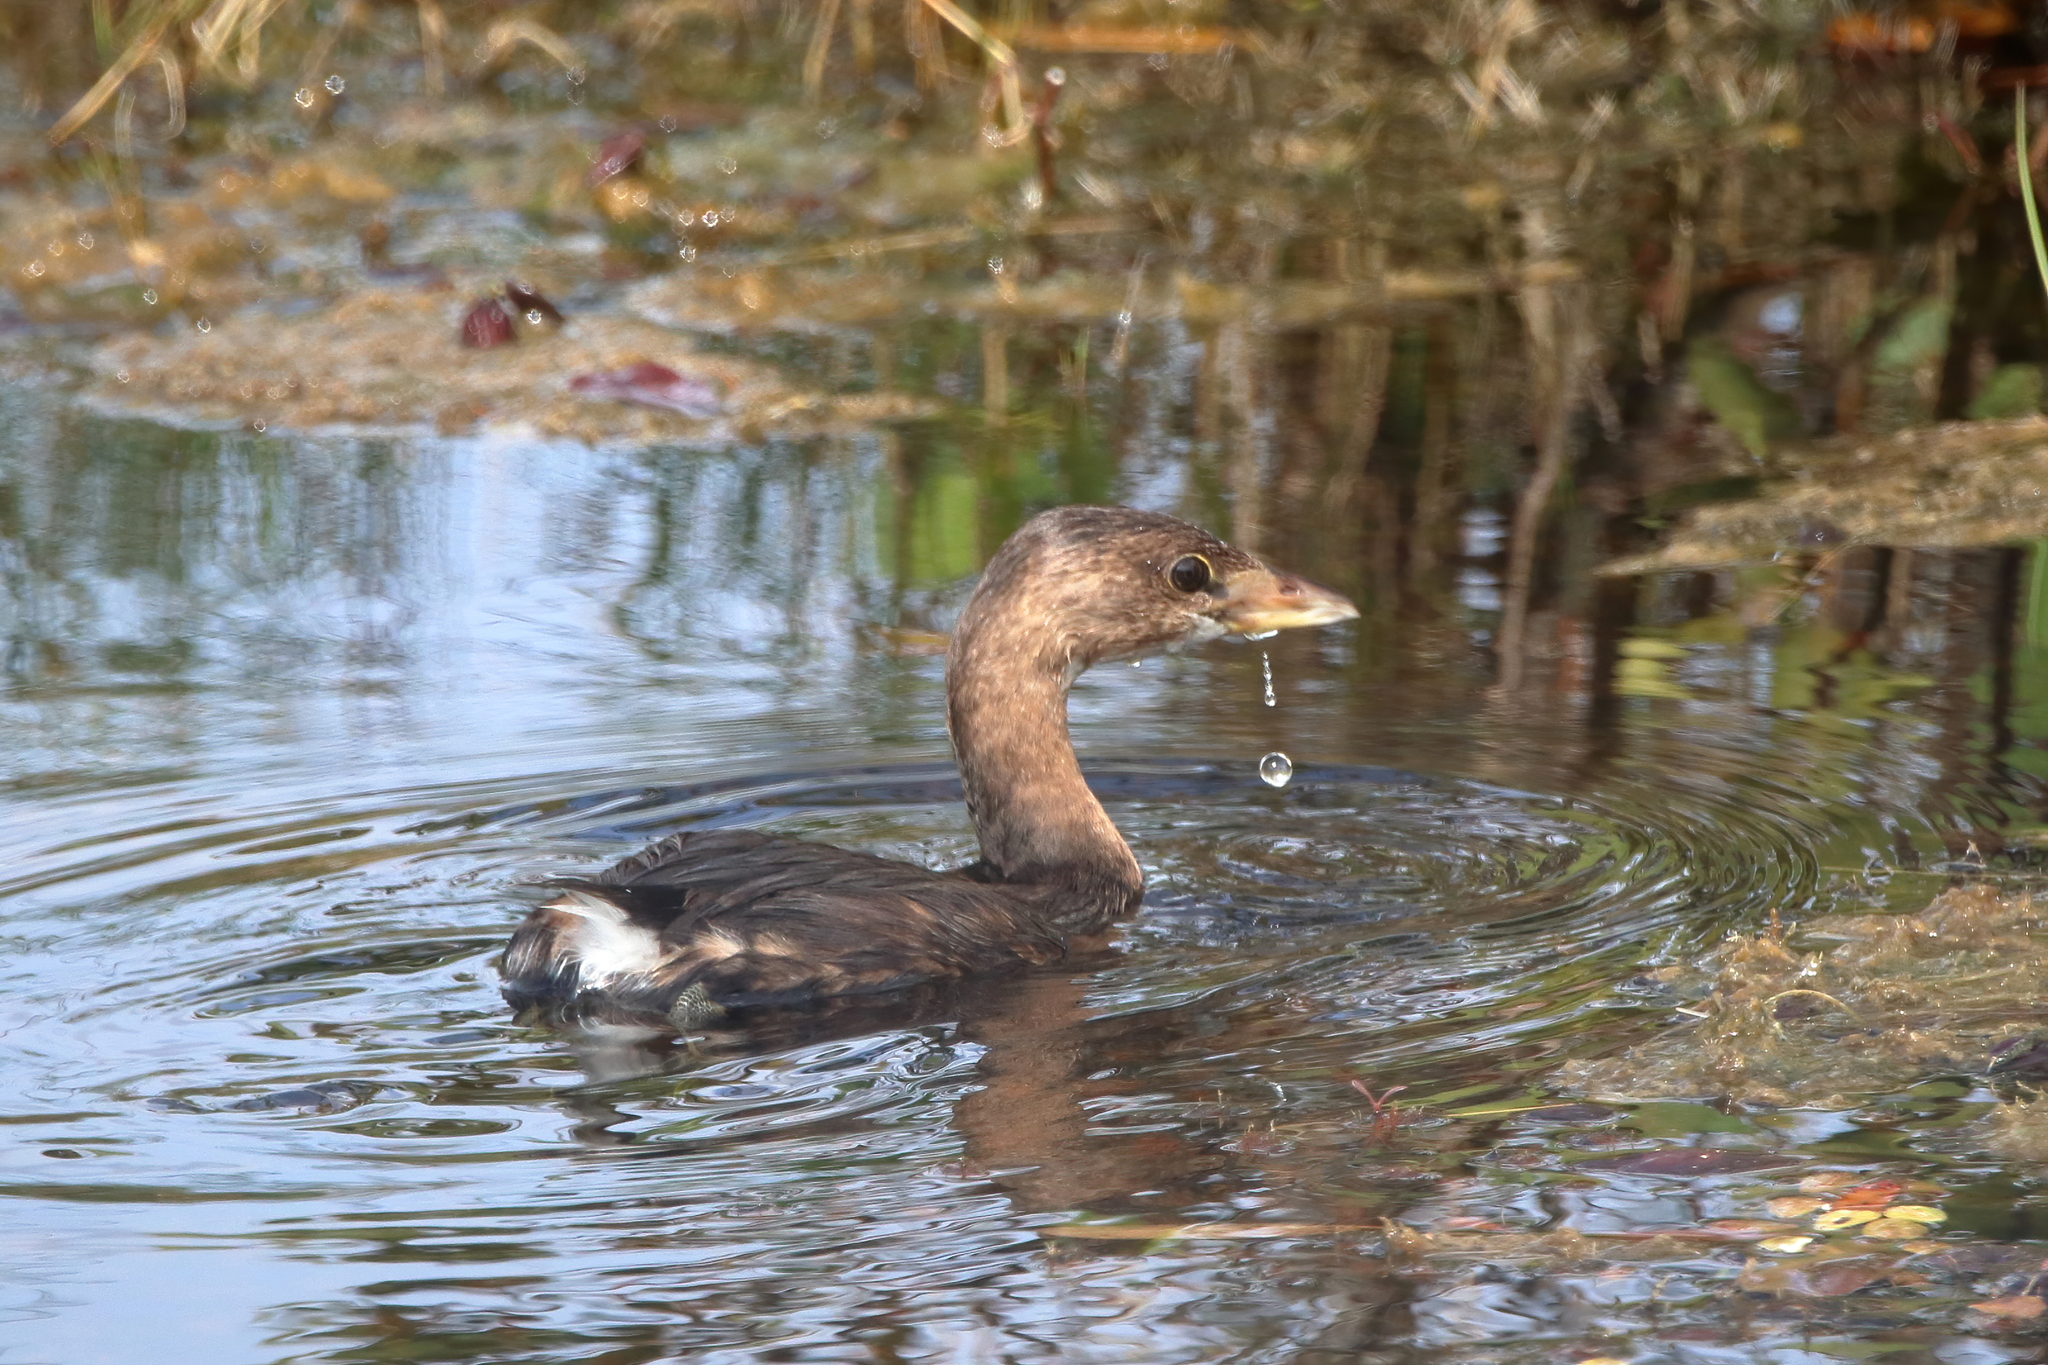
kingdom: Animalia
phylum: Chordata
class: Aves
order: Podicipediformes
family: Podicipedidae
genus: Podilymbus
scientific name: Podilymbus podiceps
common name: Pied-billed grebe
